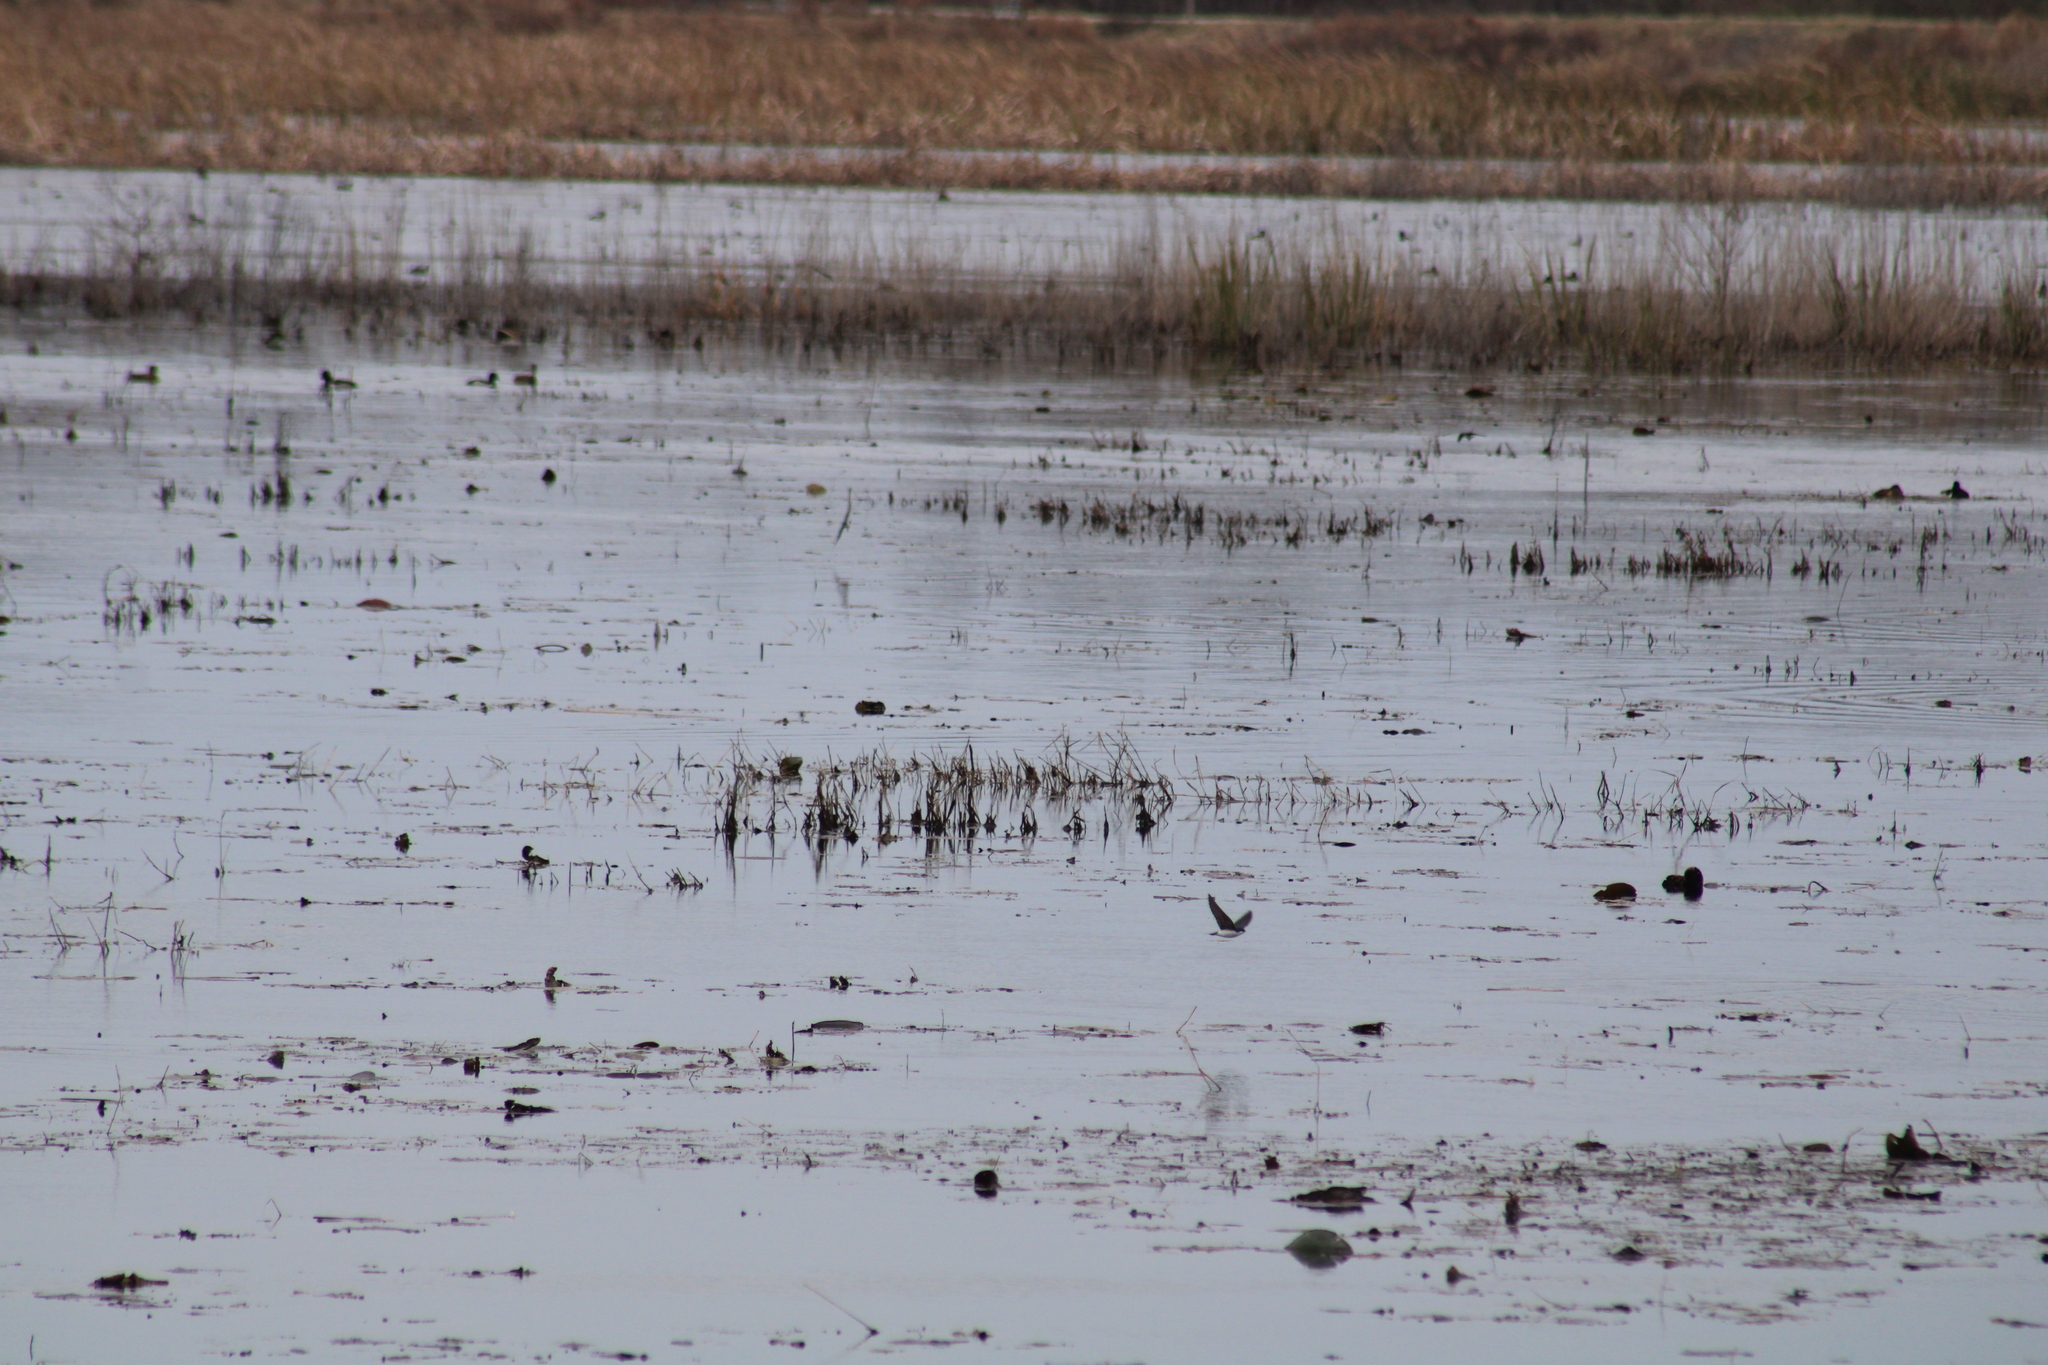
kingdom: Animalia
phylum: Chordata
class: Aves
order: Passeriformes
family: Hirundinidae
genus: Tachycineta
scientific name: Tachycineta bicolor
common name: Tree swallow
